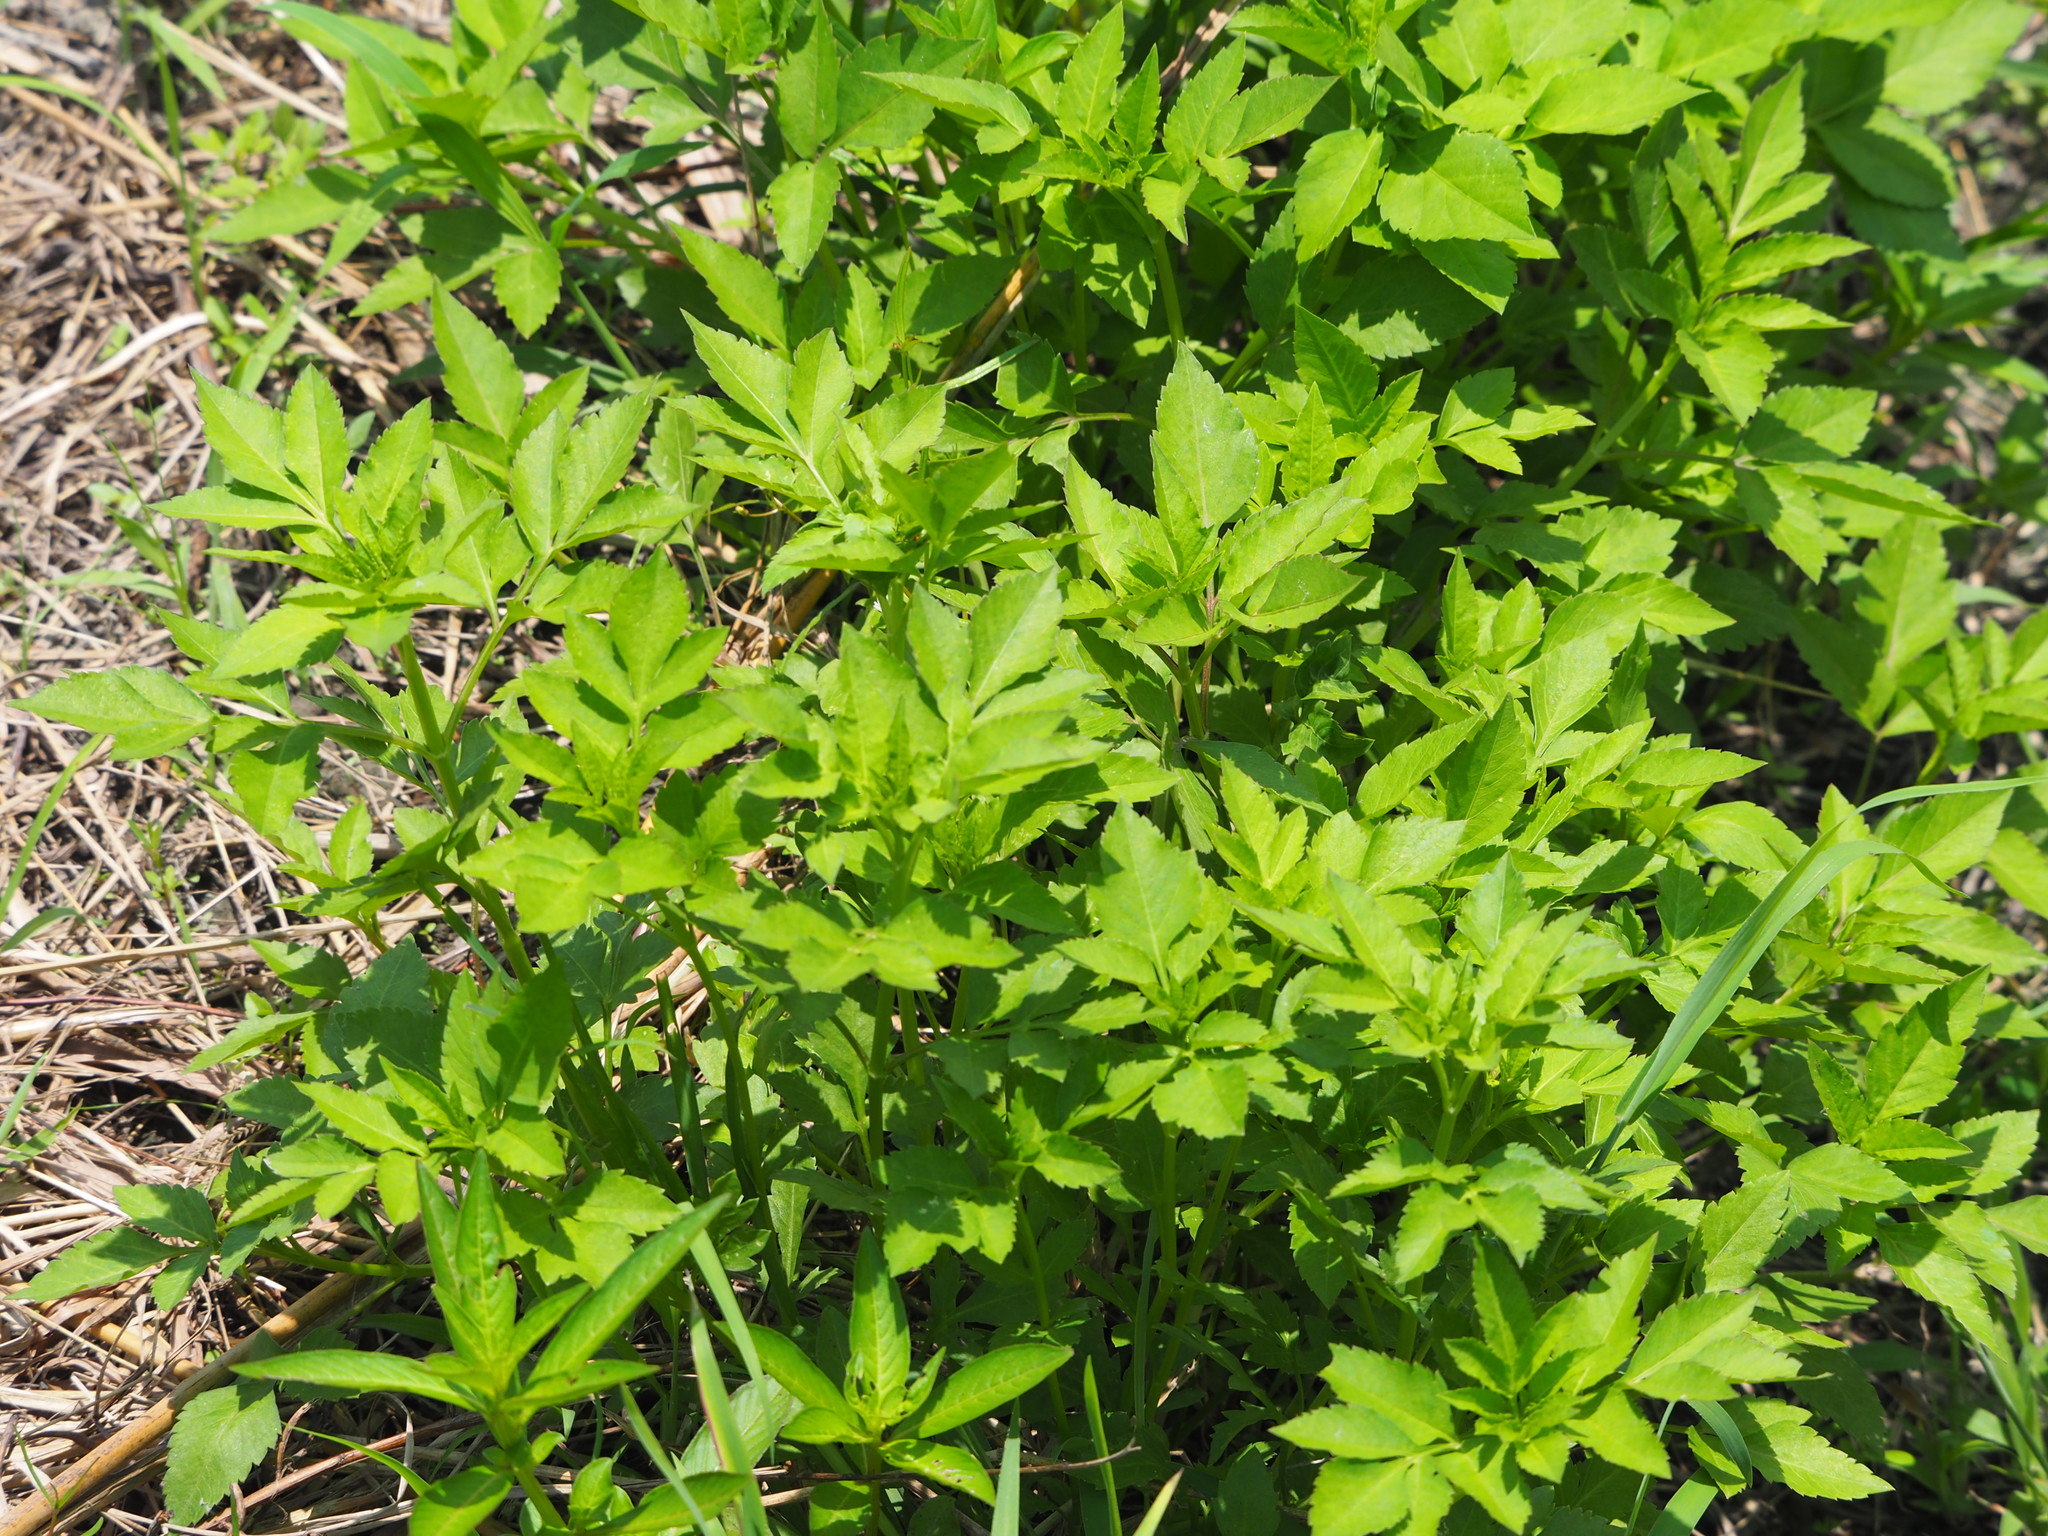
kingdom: Plantae
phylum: Tracheophyta
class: Magnoliopsida
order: Asterales
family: Asteraceae
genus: Bidens
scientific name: Bidens alba
